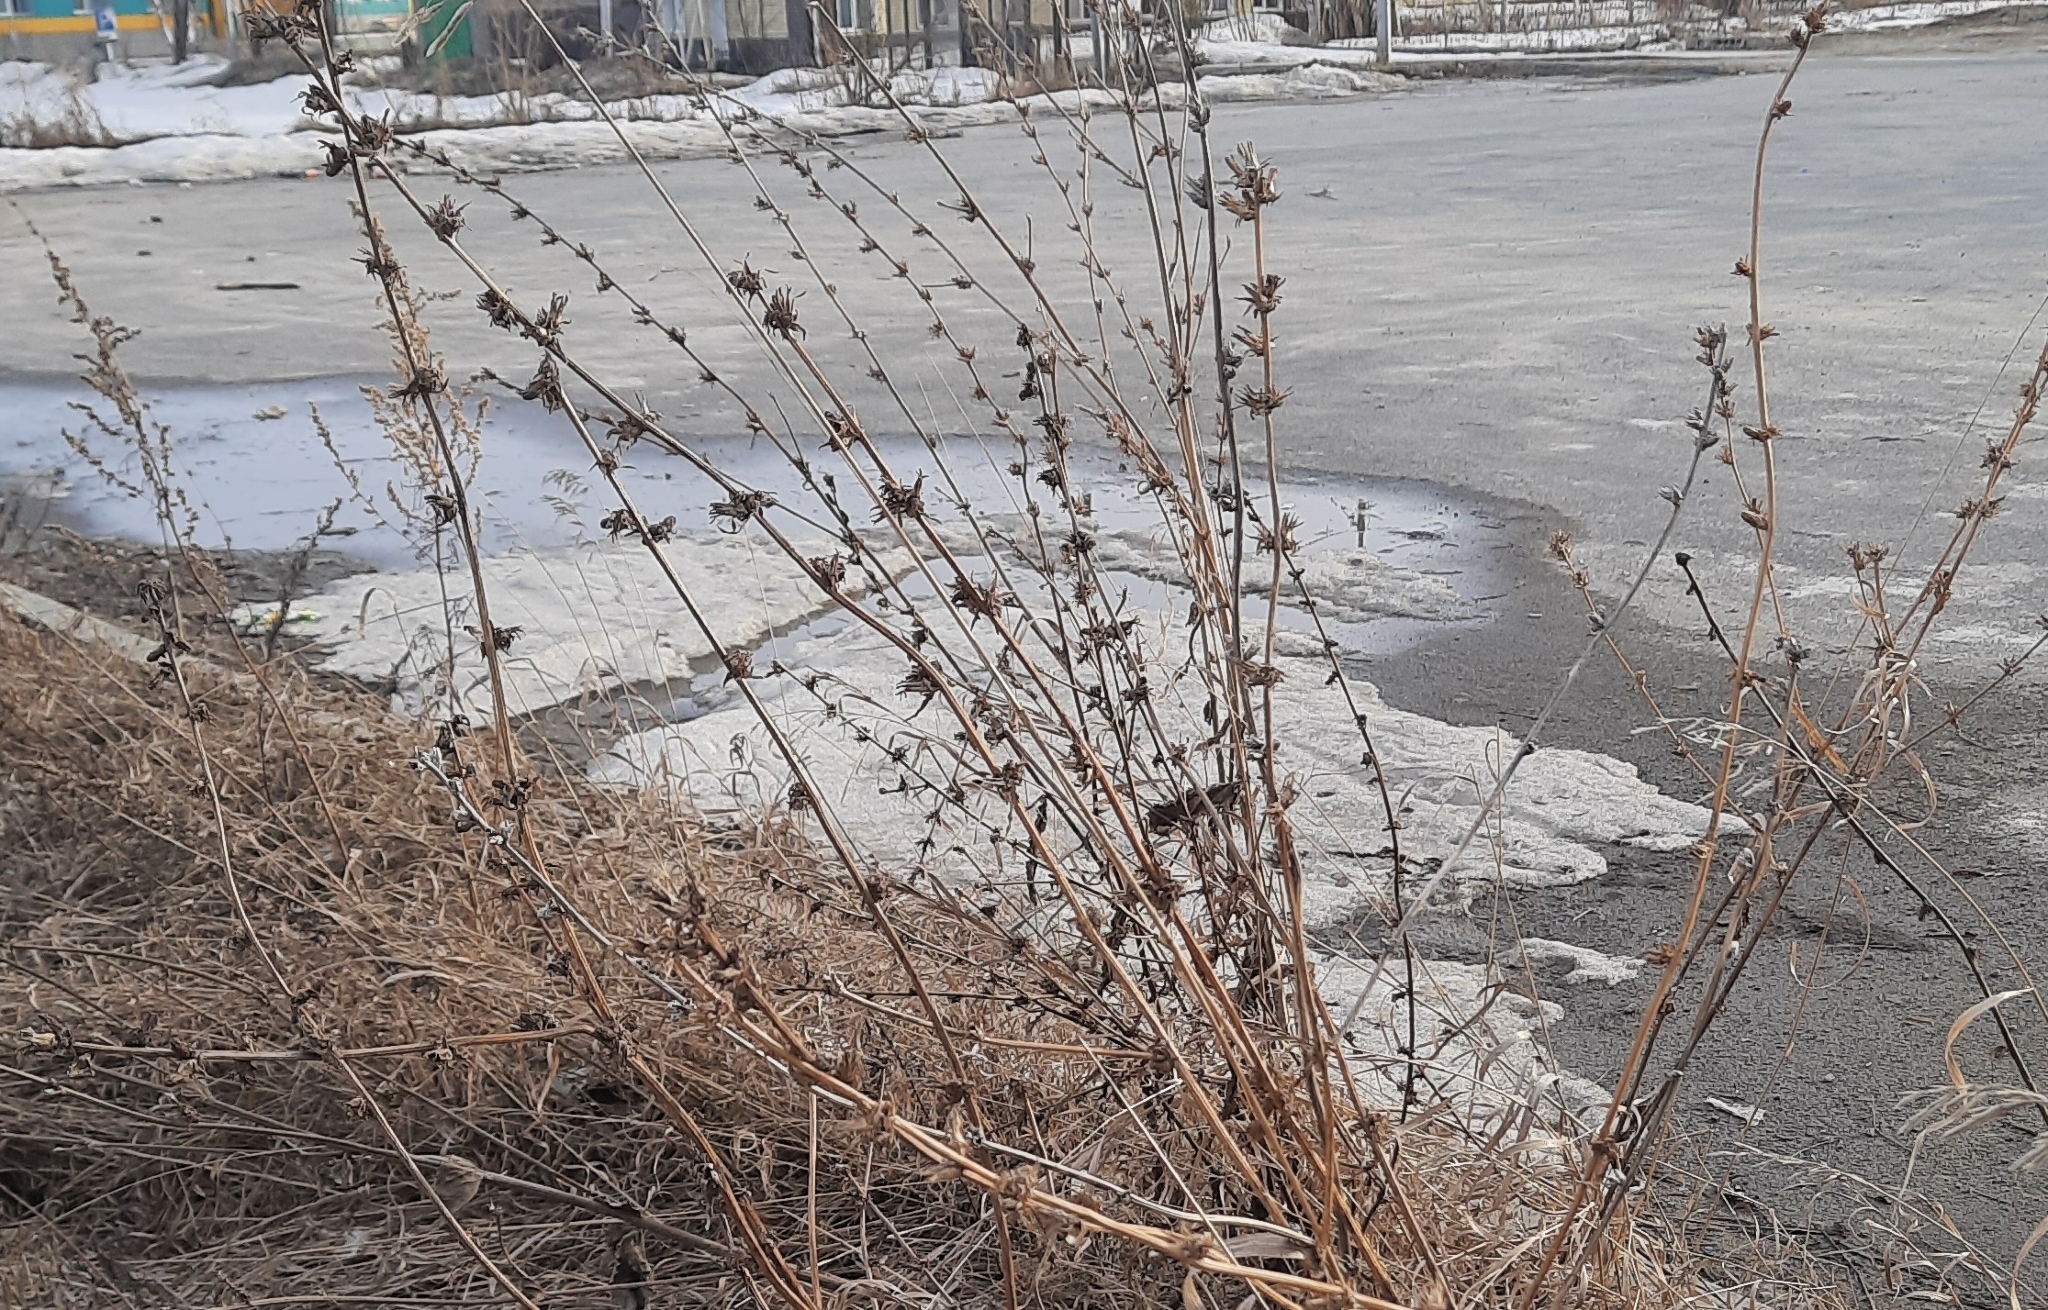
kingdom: Plantae
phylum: Tracheophyta
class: Magnoliopsida
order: Asterales
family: Asteraceae
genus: Cichorium
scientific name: Cichorium intybus
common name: Chicory
